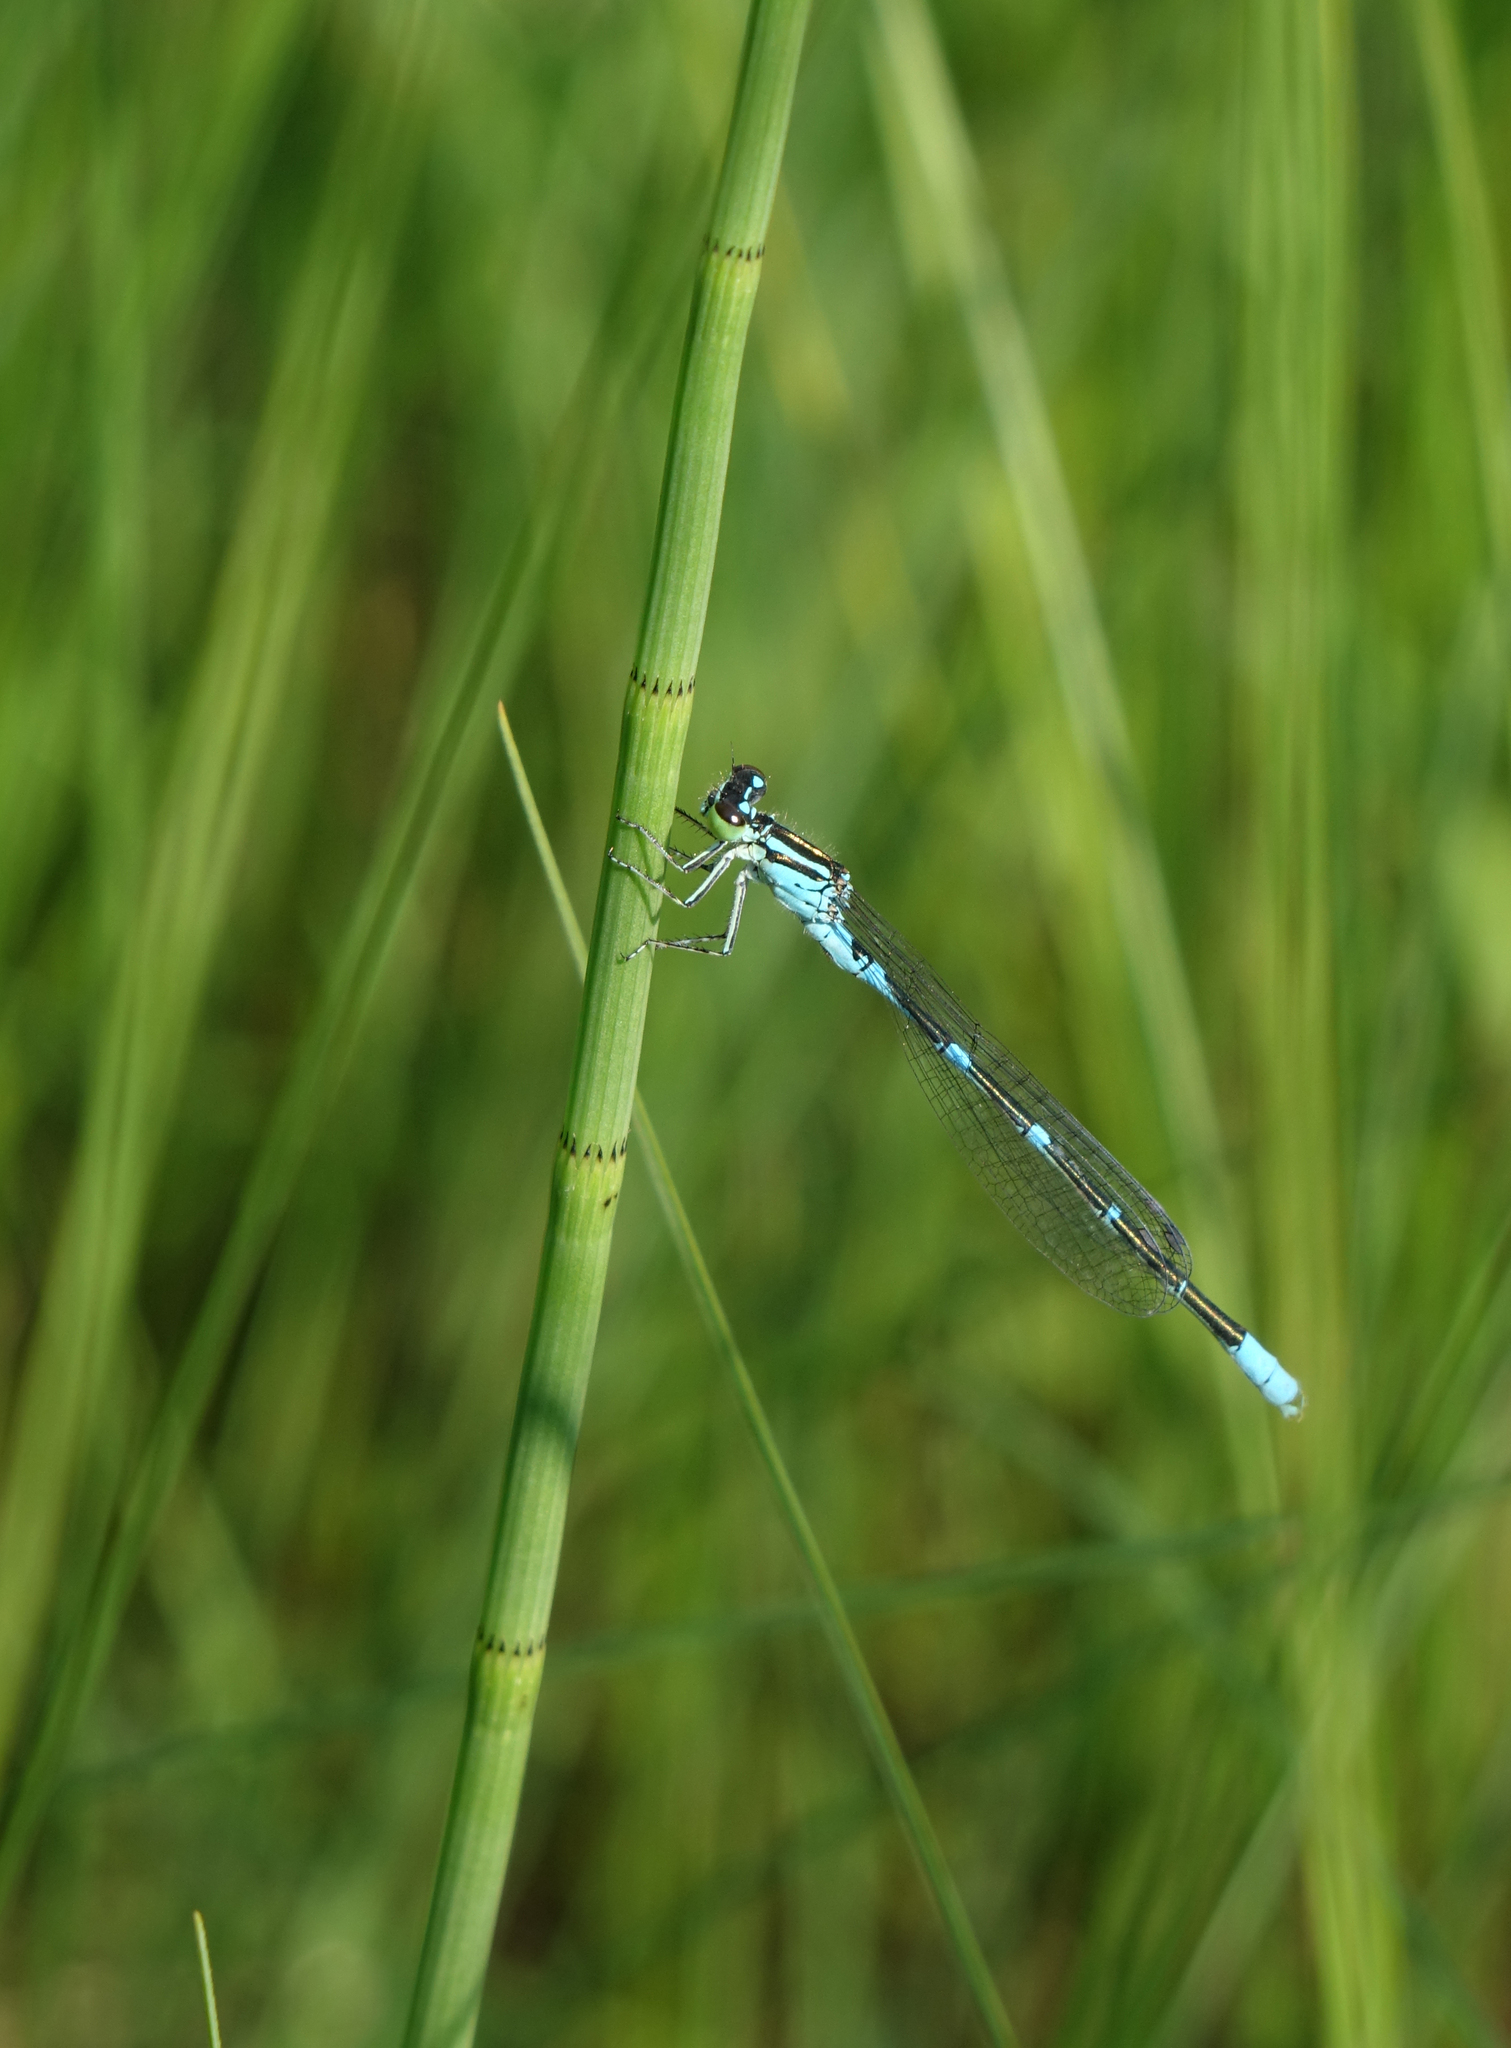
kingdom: Animalia
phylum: Arthropoda
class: Insecta
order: Odonata
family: Coenagrionidae
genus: Coenagrion
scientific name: Coenagrion lanceolatum
